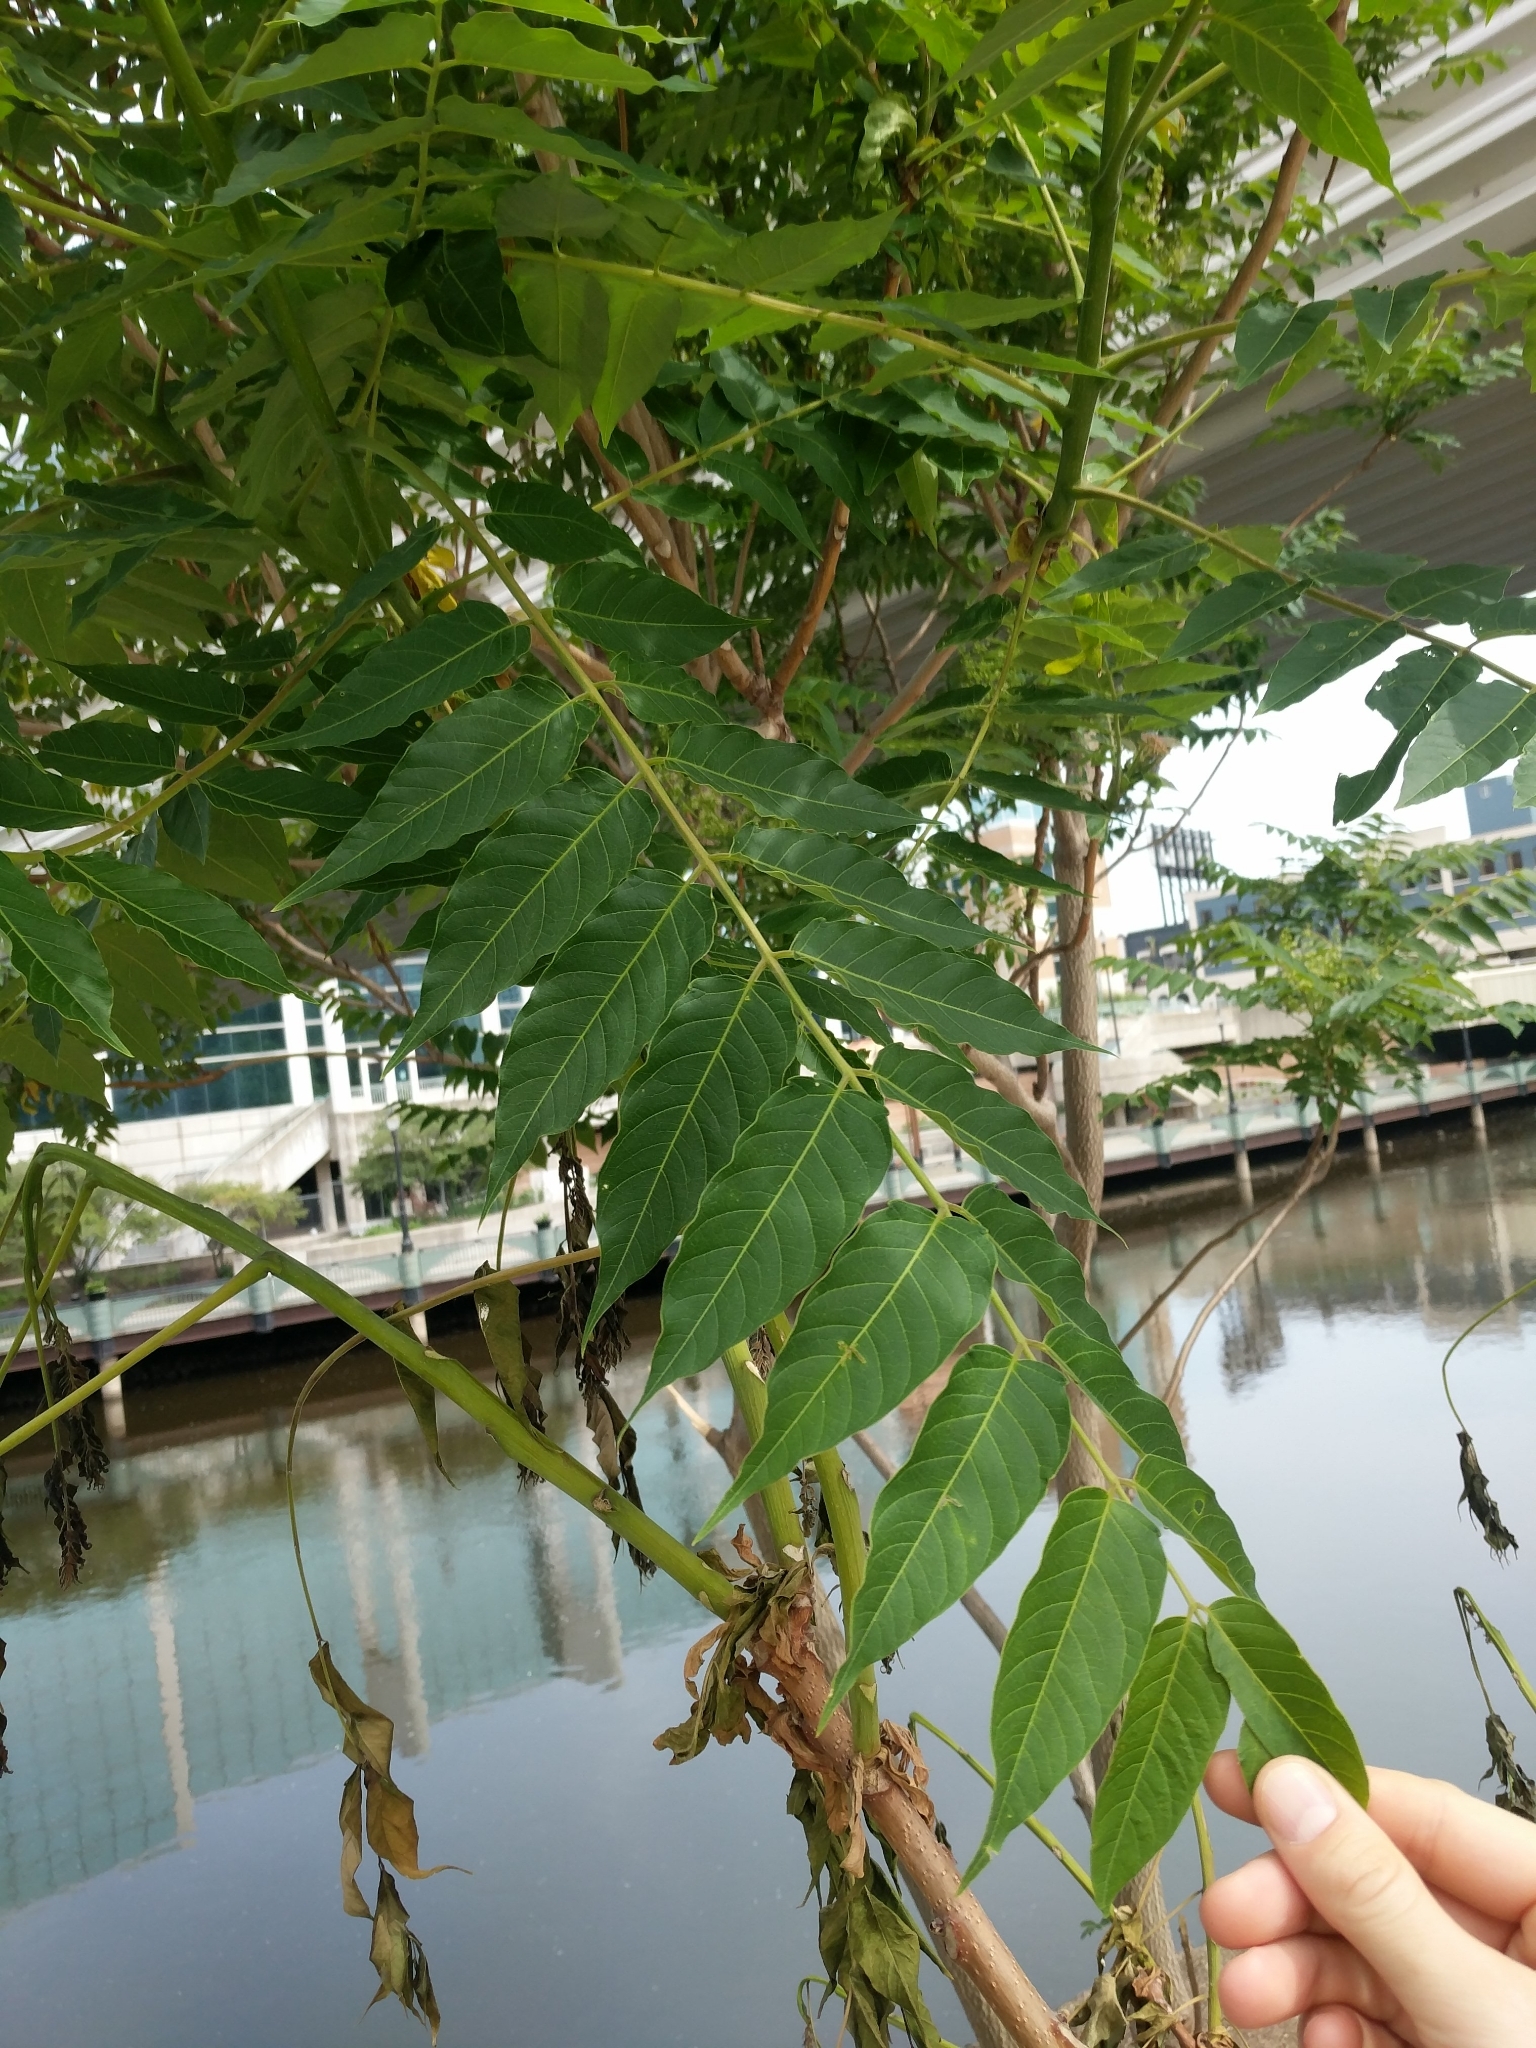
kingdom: Plantae
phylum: Tracheophyta
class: Magnoliopsida
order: Sapindales
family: Simaroubaceae
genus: Ailanthus
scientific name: Ailanthus altissima
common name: Tree-of-heaven
